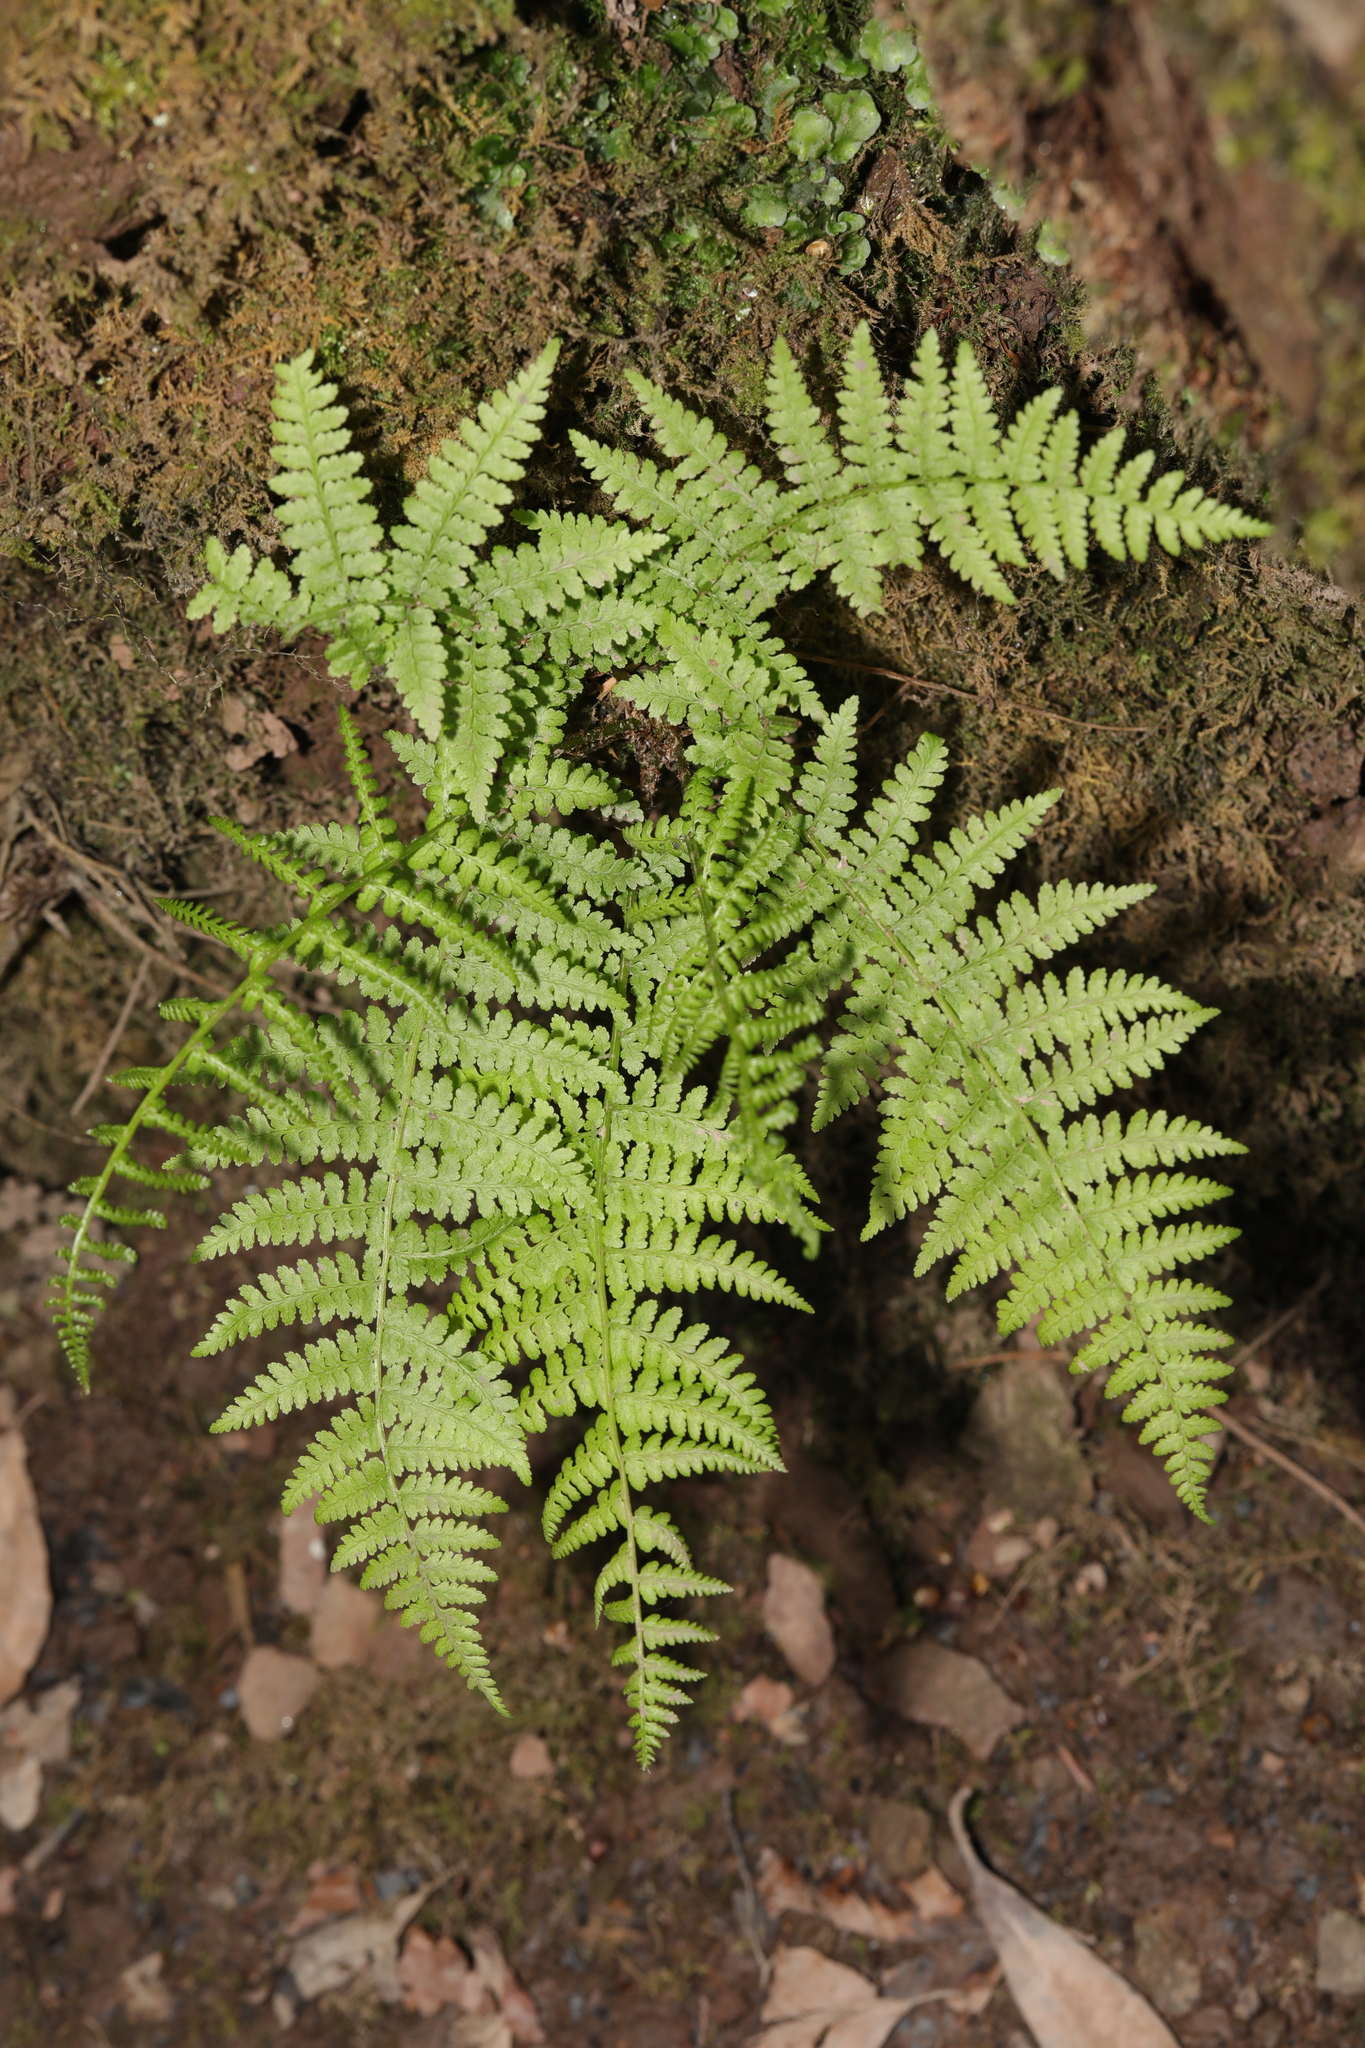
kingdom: Plantae
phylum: Tracheophyta
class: Polypodiopsida
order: Polypodiales
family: Athyriaceae
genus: Athyrium
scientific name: Athyrium filix-femina
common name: Lady fern
